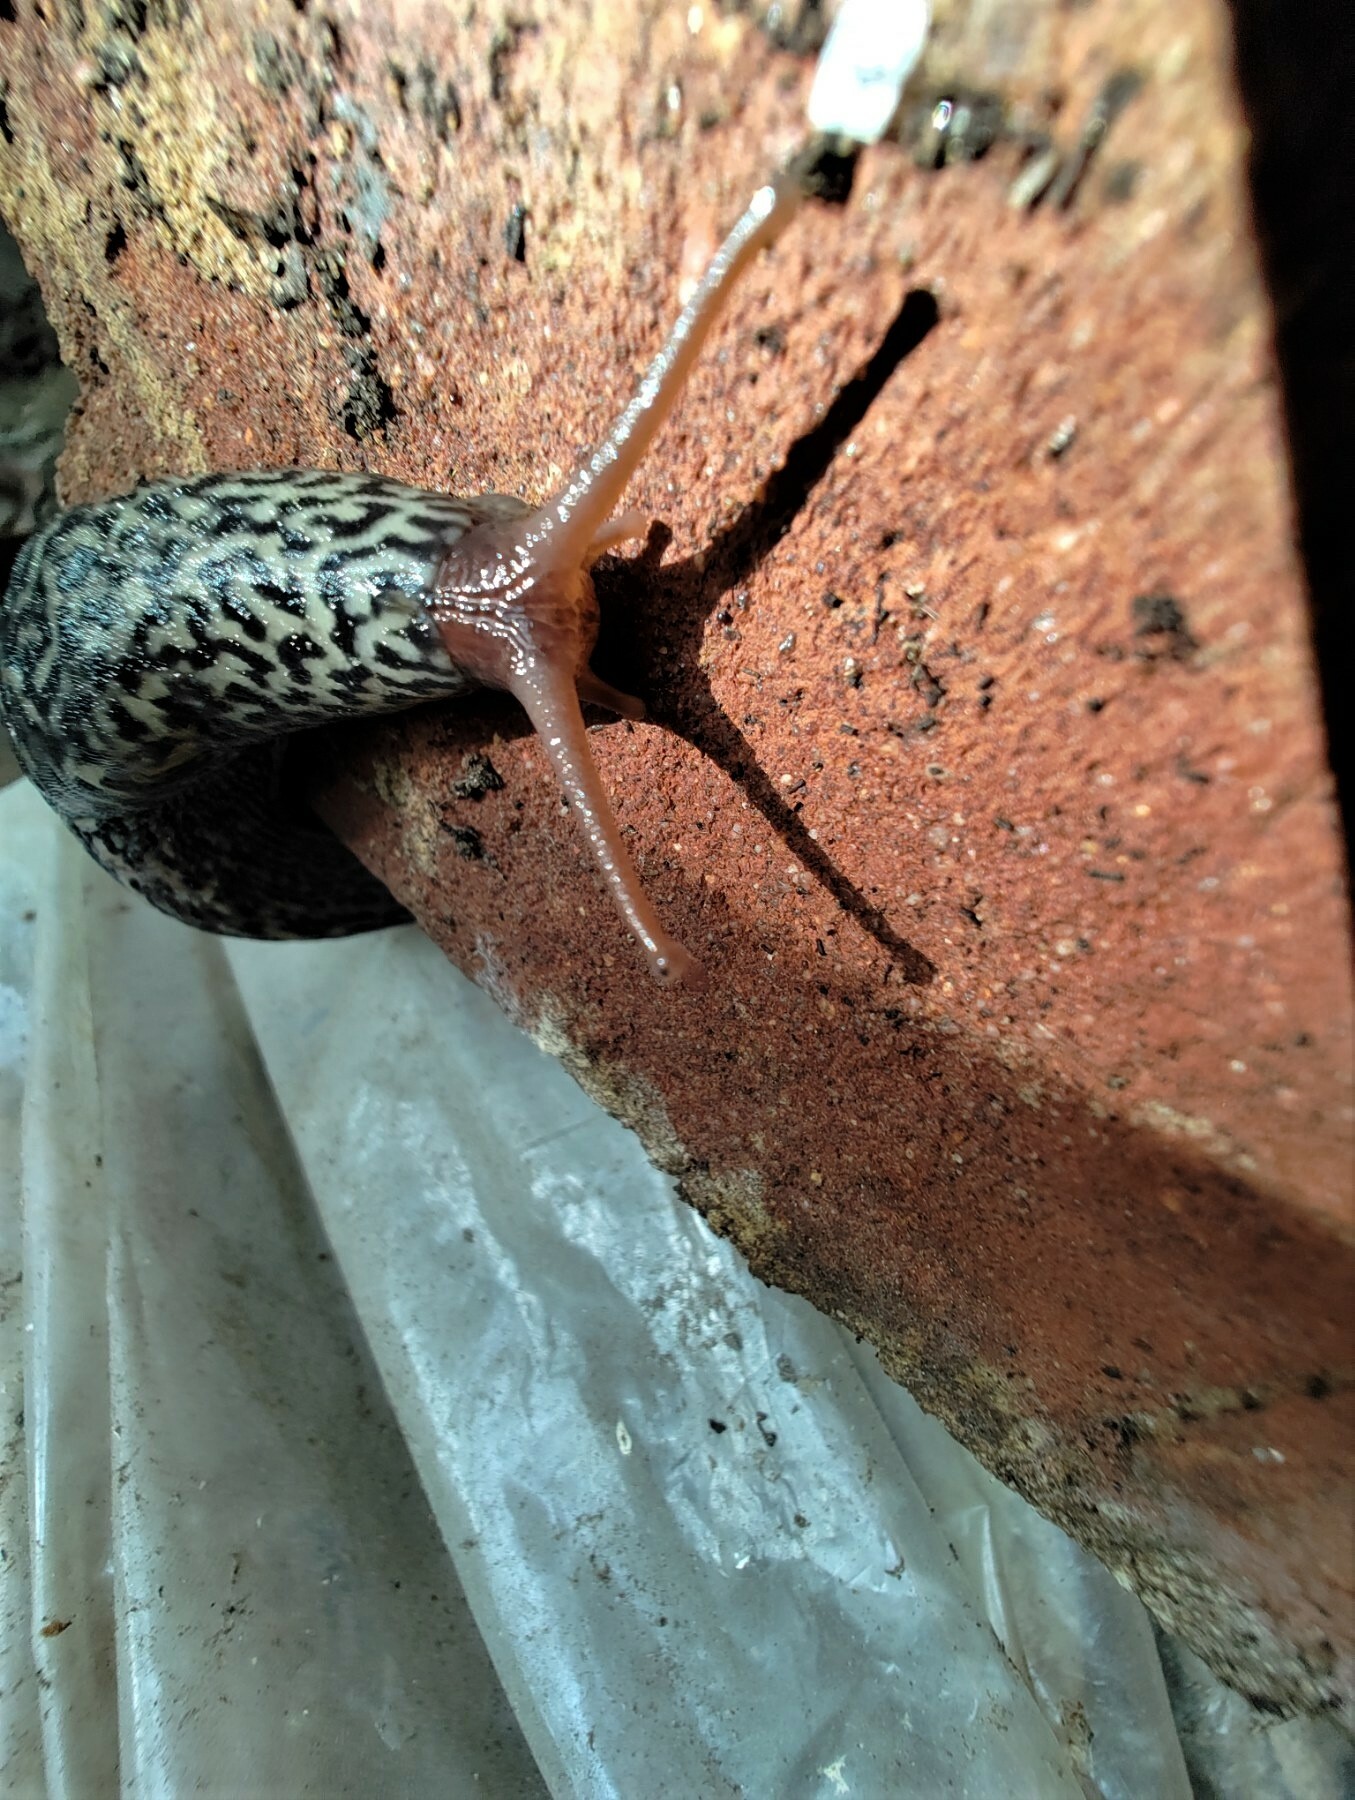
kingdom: Animalia
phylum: Mollusca
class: Gastropoda
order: Stylommatophora
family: Limacidae
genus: Limax
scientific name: Limax maximus
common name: Great grey slug
